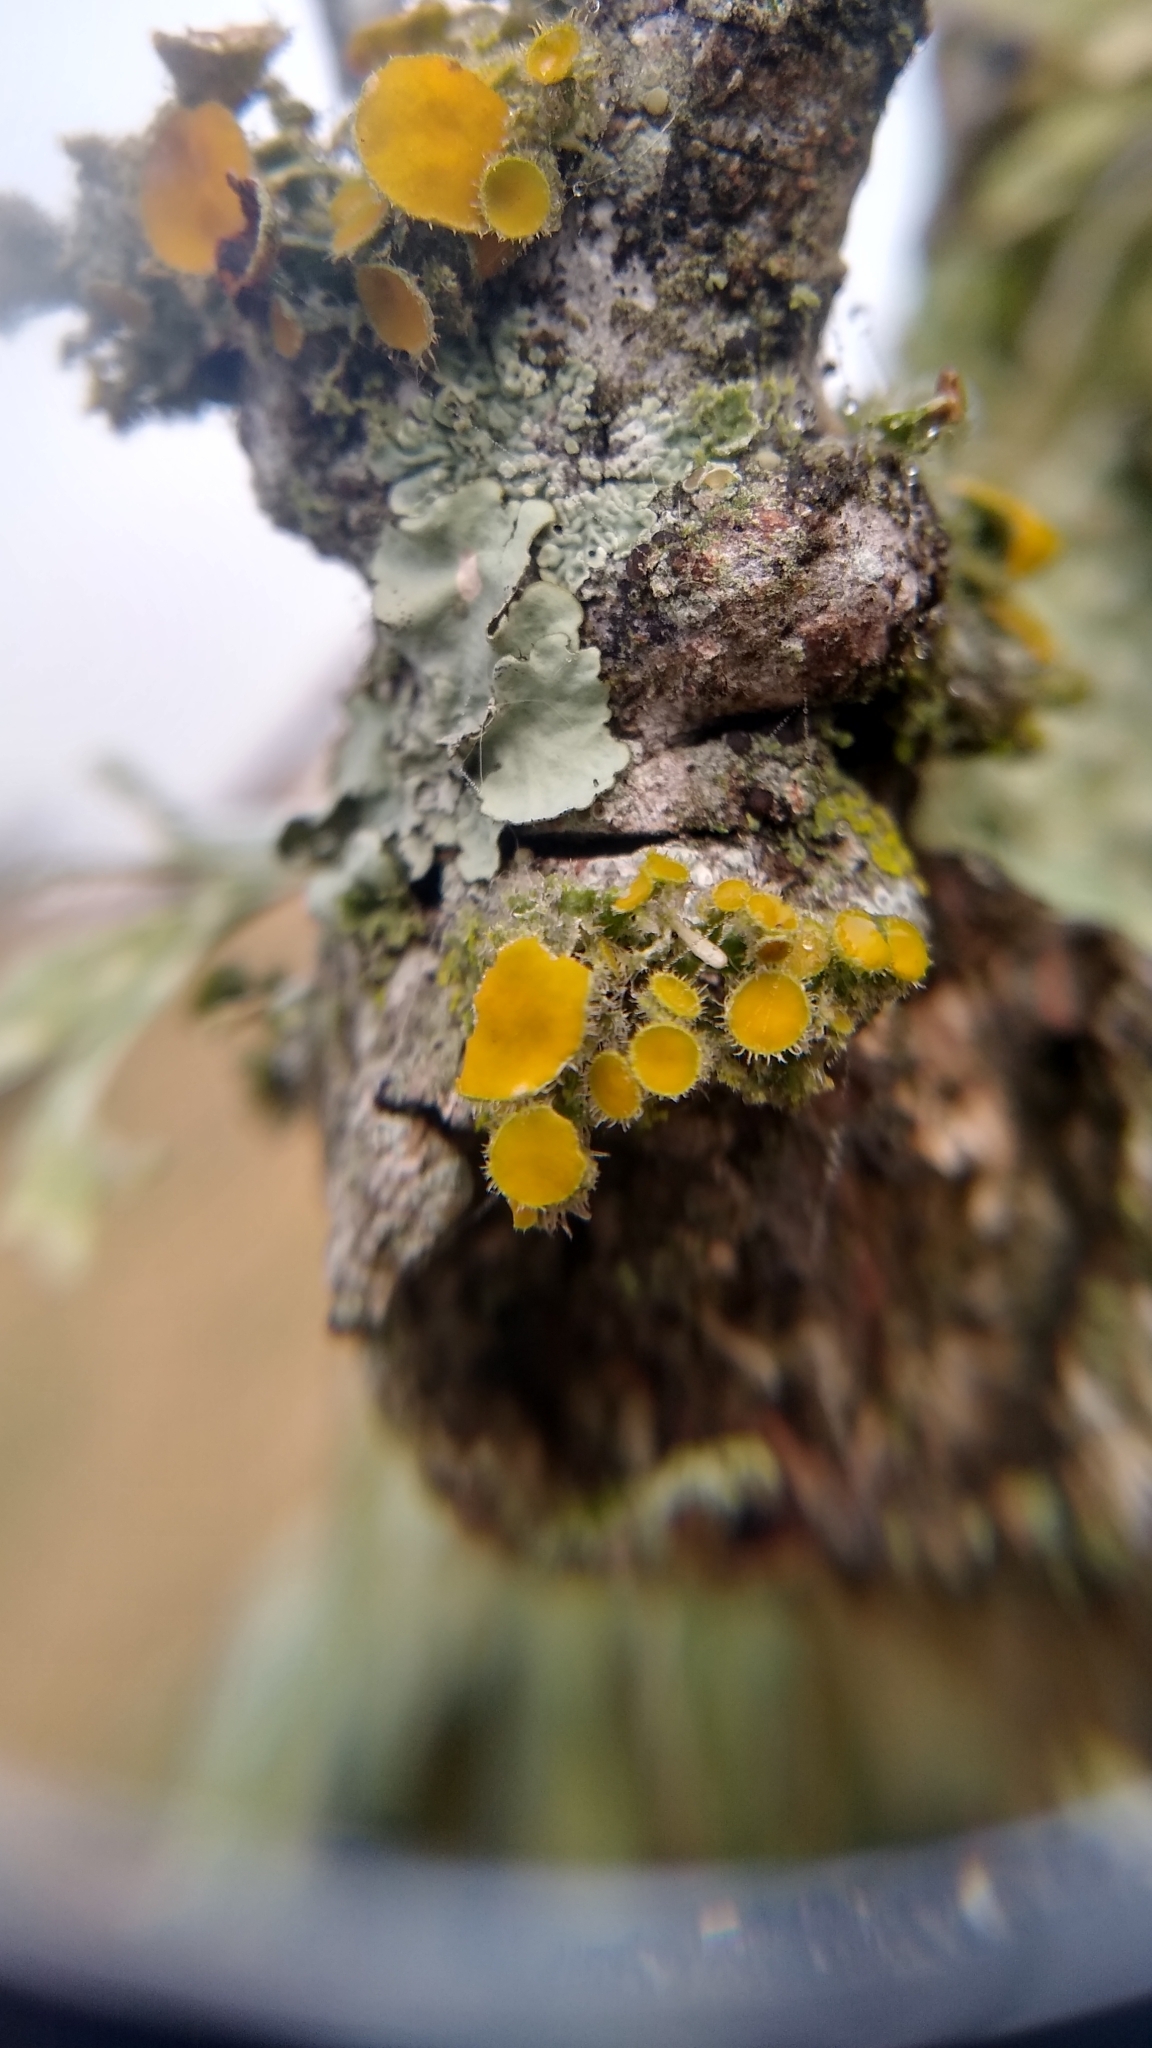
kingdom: Fungi
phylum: Ascomycota
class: Lecanoromycetes
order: Teloschistales
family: Teloschistaceae
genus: Niorma
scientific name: Niorma chrysophthalma
